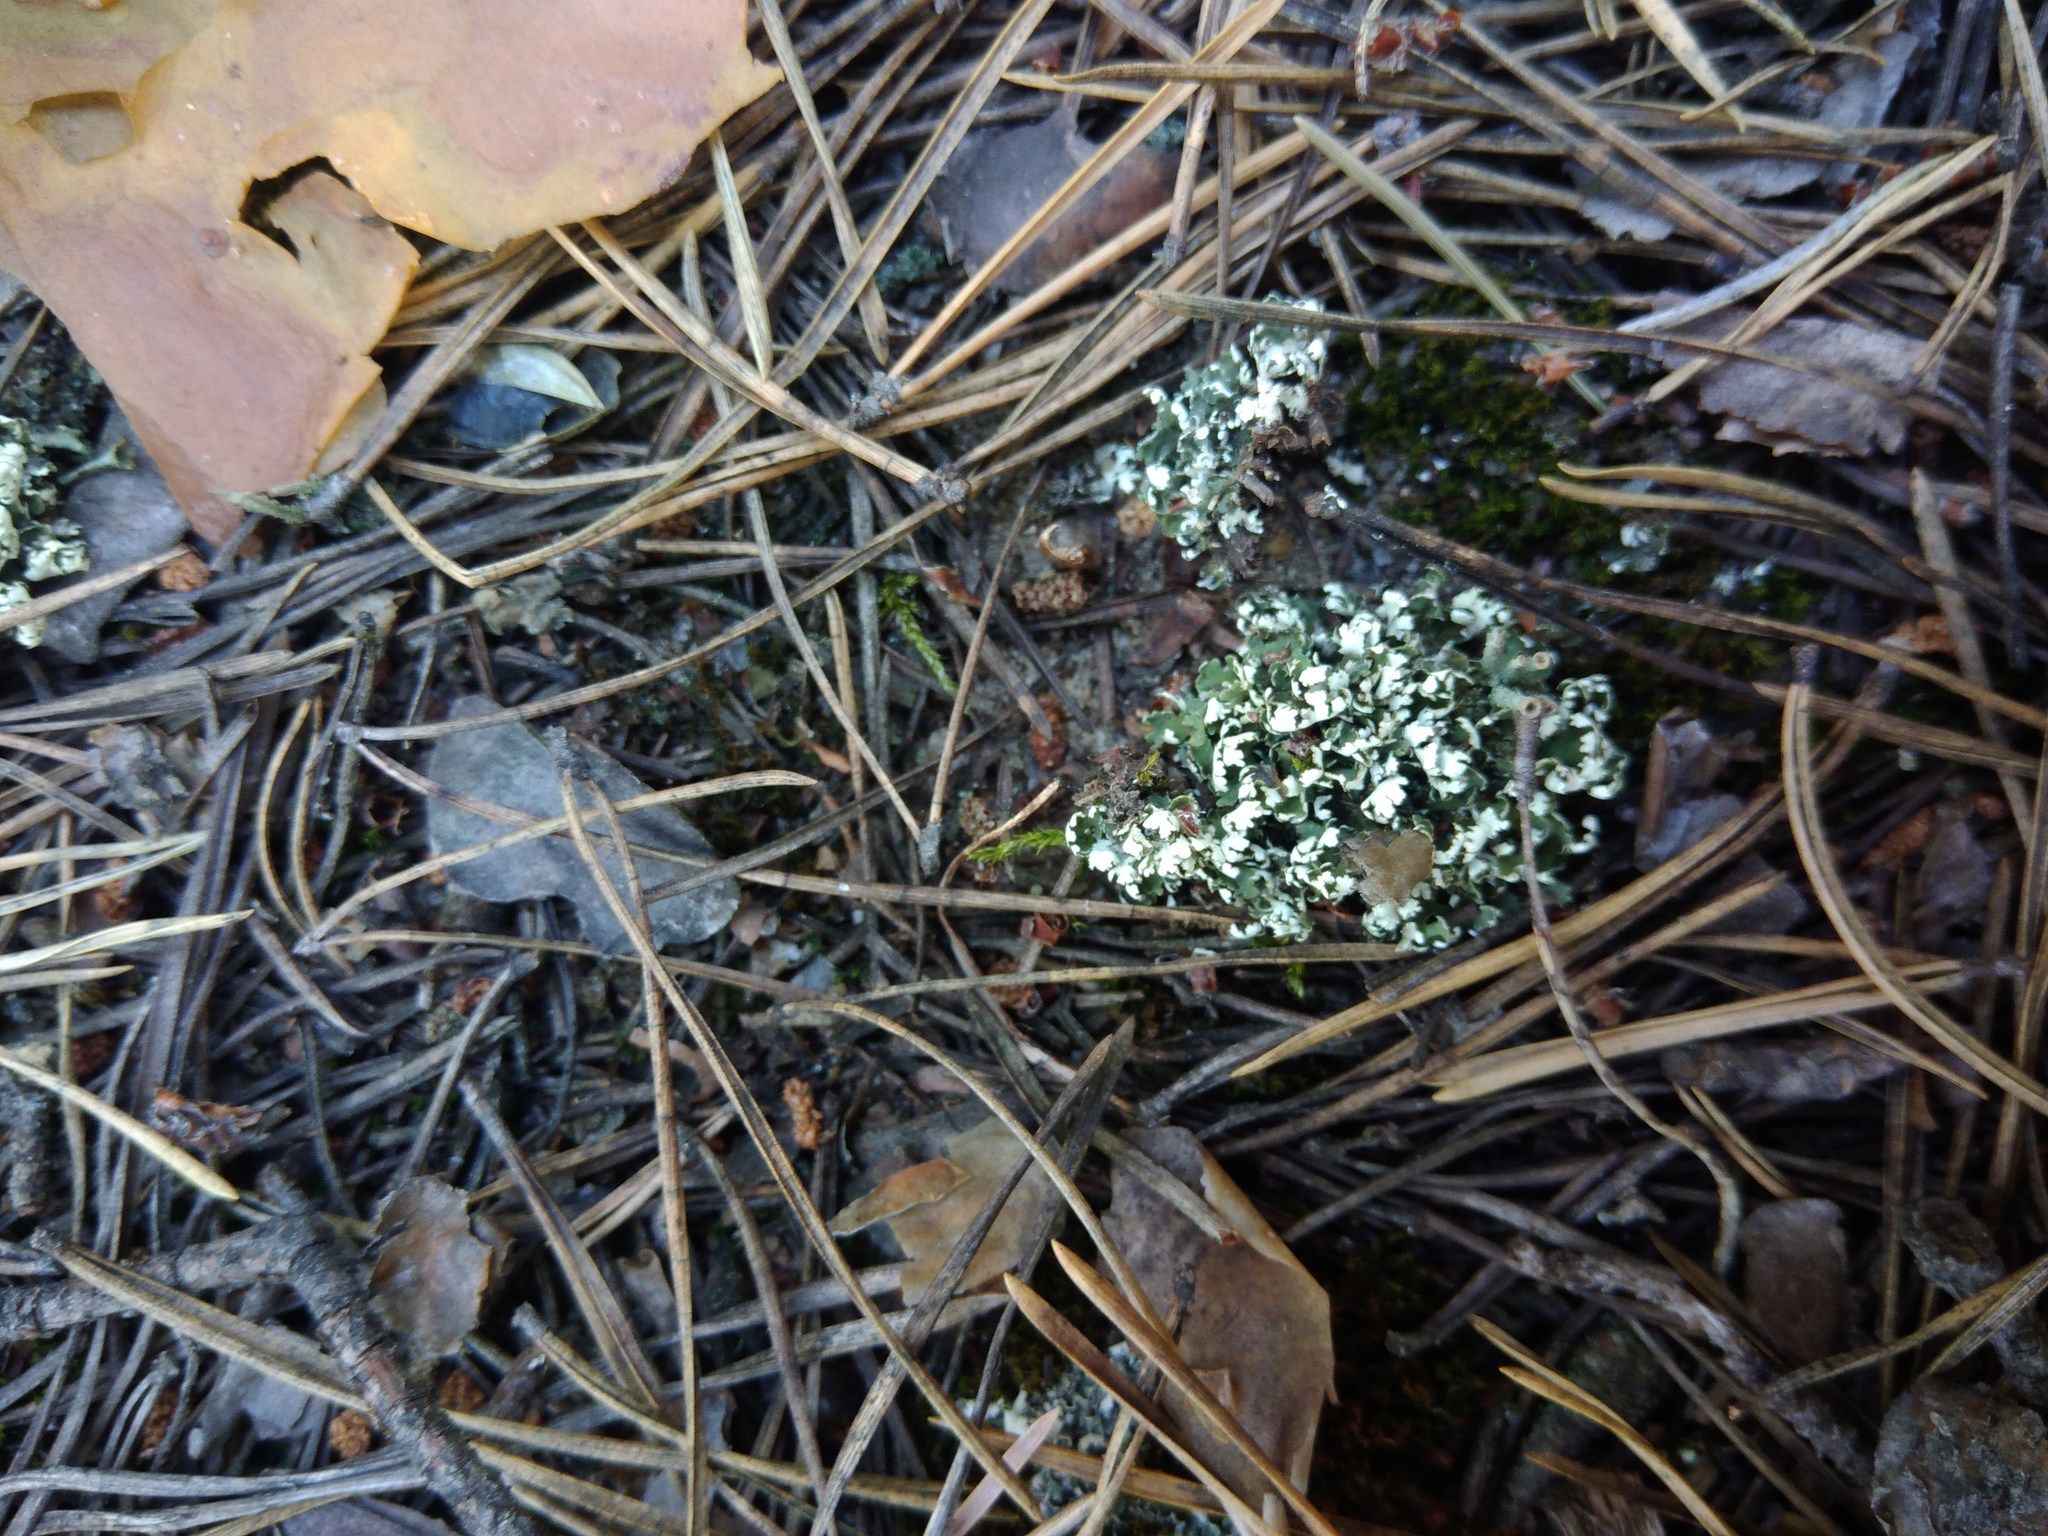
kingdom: Fungi
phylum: Ascomycota
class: Lecanoromycetes
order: Lecanorales
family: Cladoniaceae
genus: Cladonia
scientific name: Cladonia foliacea
